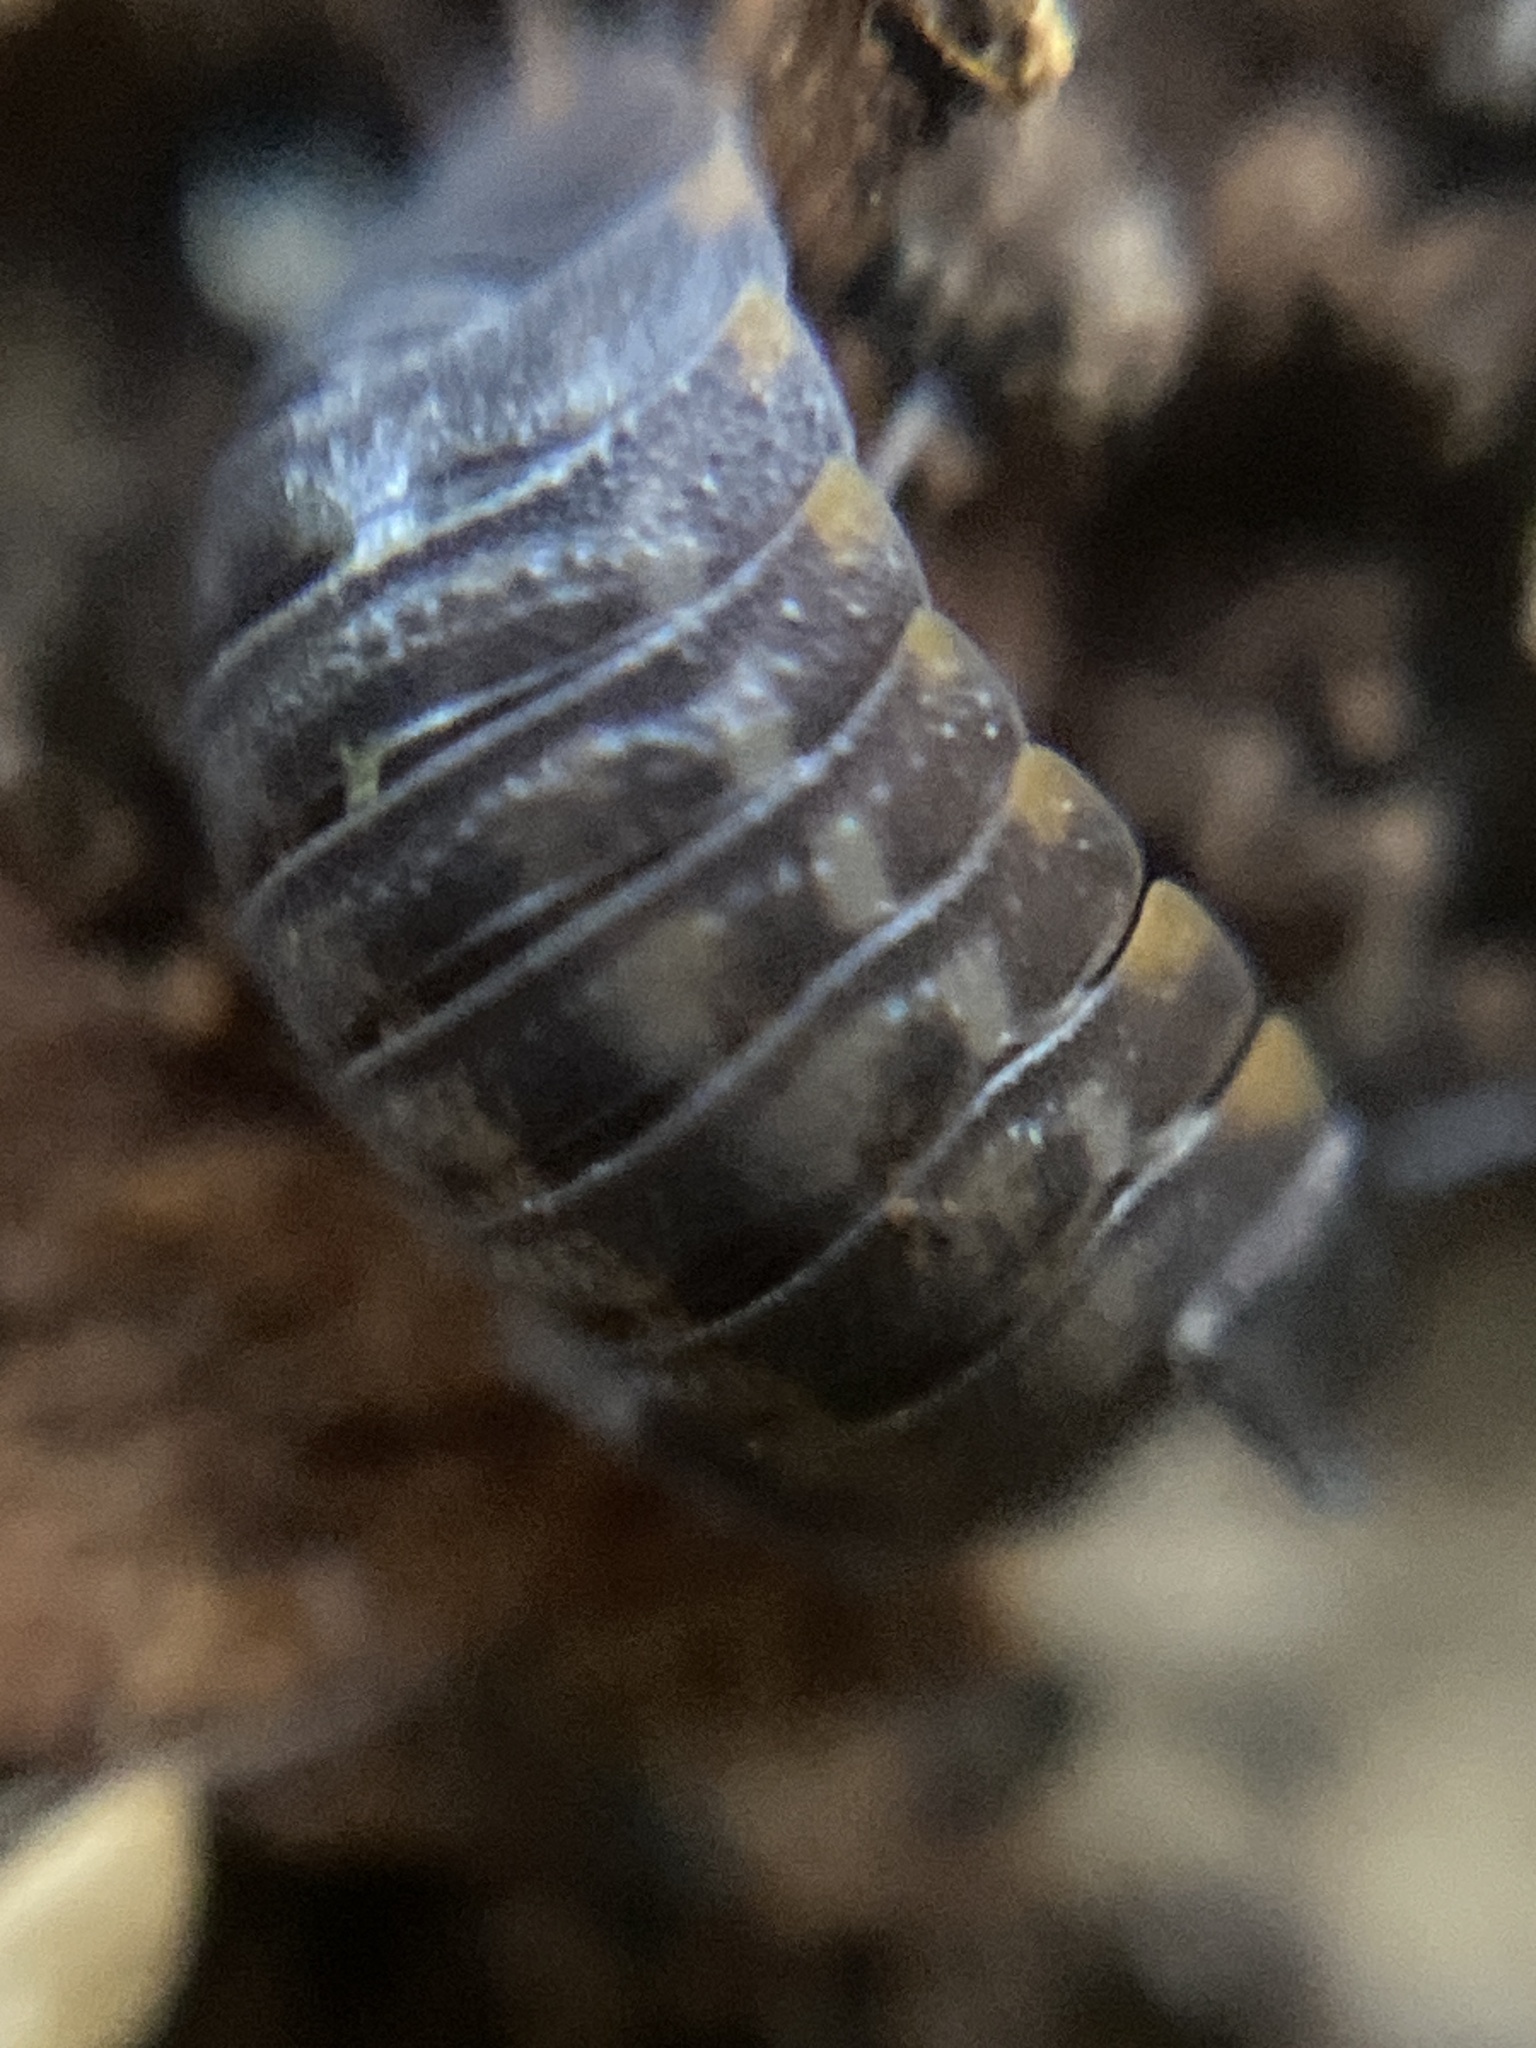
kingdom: Animalia
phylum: Arthropoda
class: Malacostraca
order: Isopoda
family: Trachelipodidae
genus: Trachelipus
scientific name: Trachelipus ratzeburgii
